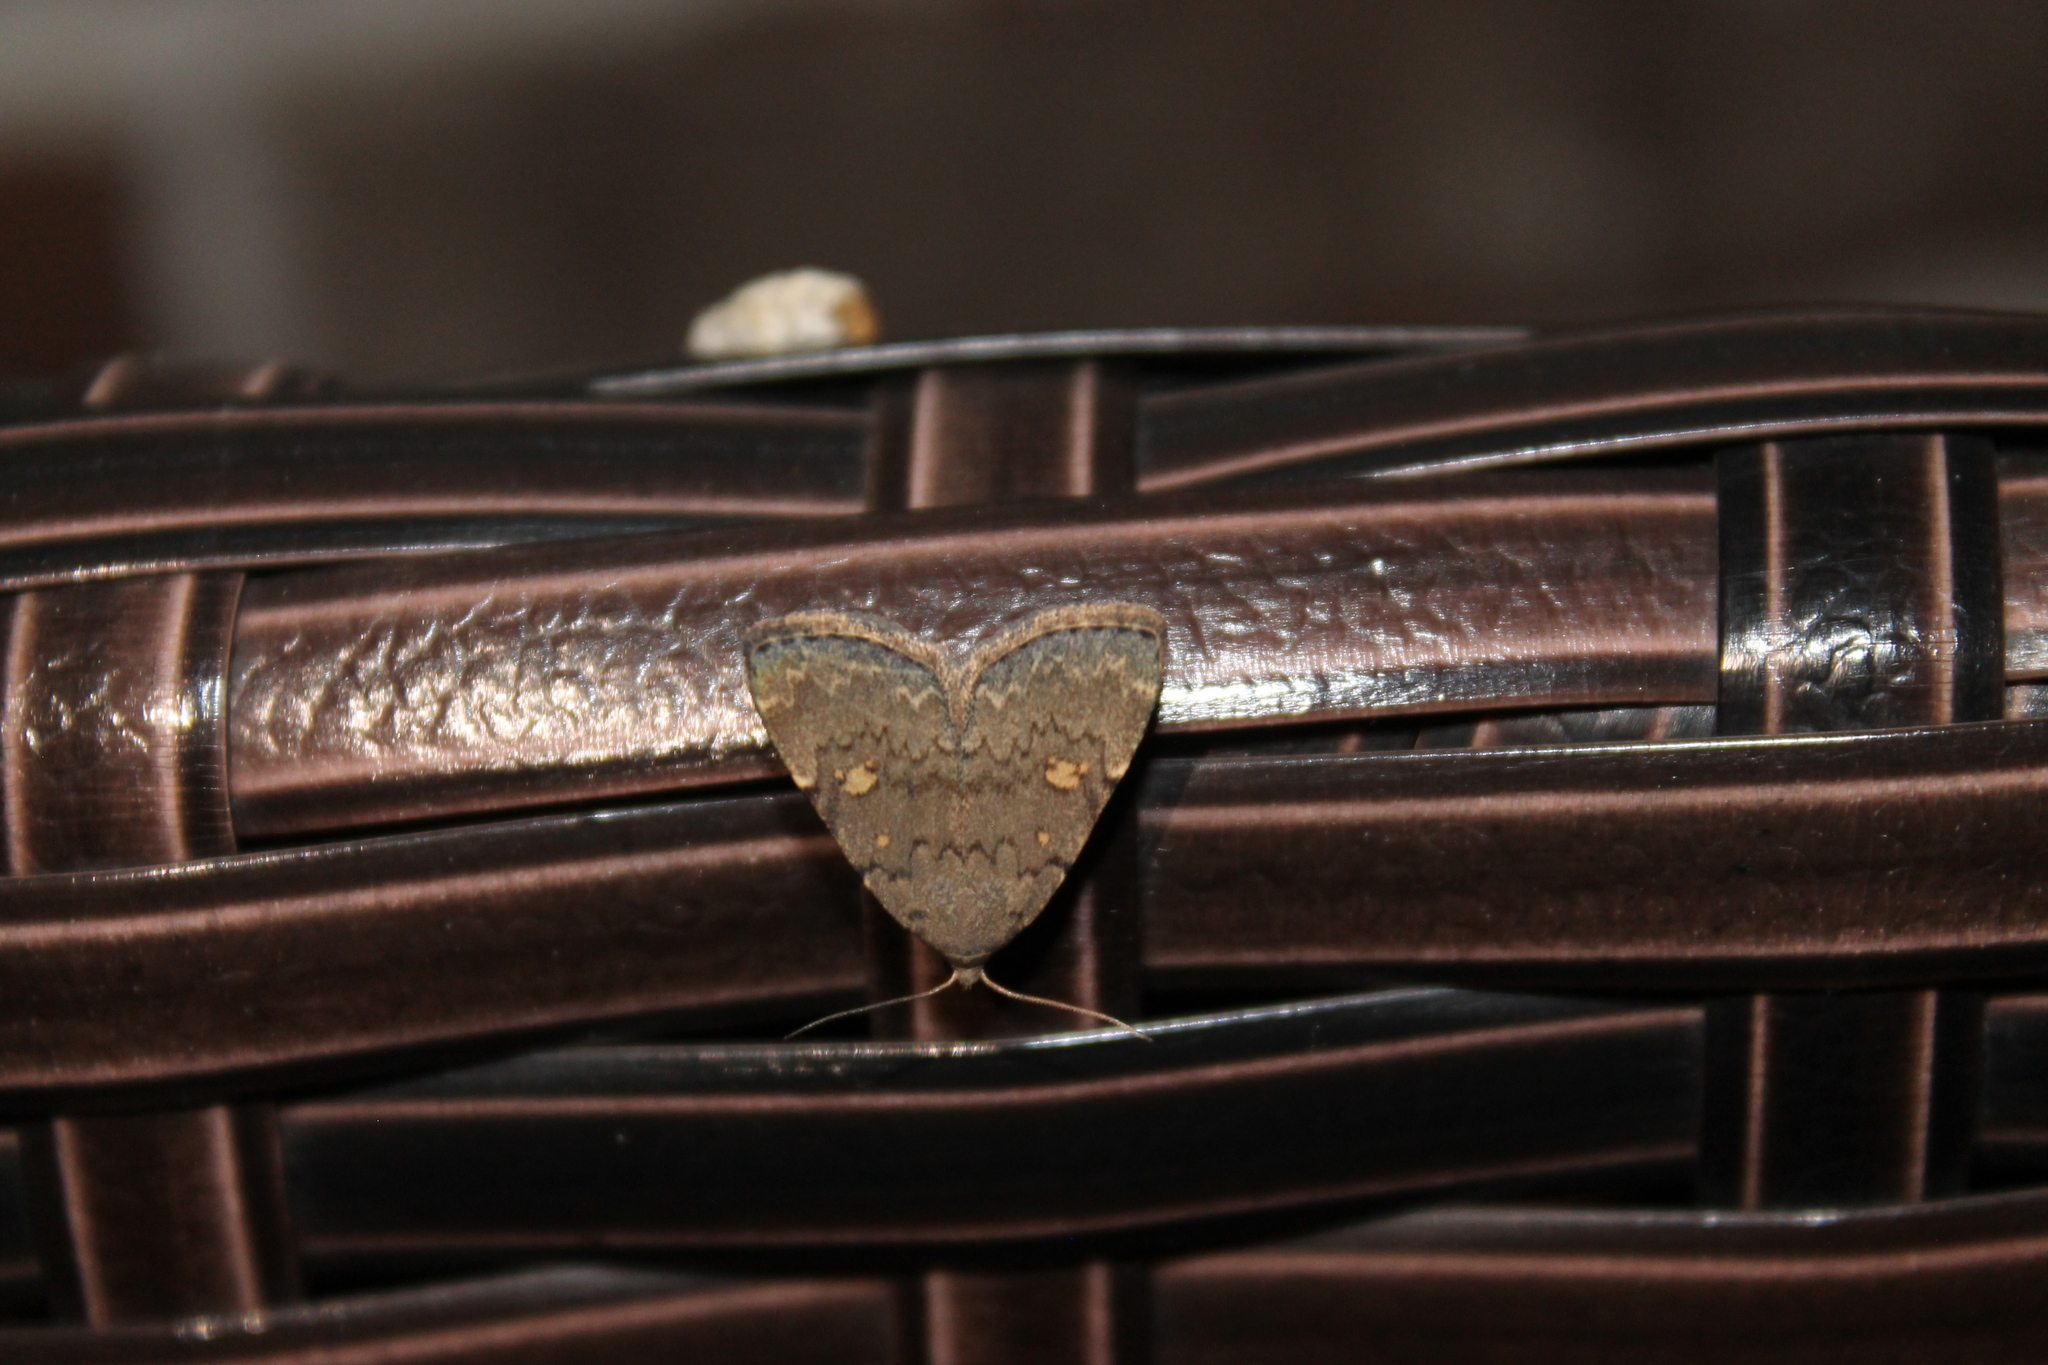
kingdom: Animalia
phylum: Arthropoda
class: Insecta
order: Lepidoptera
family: Erebidae
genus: Idia
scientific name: Idia aemula
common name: Common idia moth
